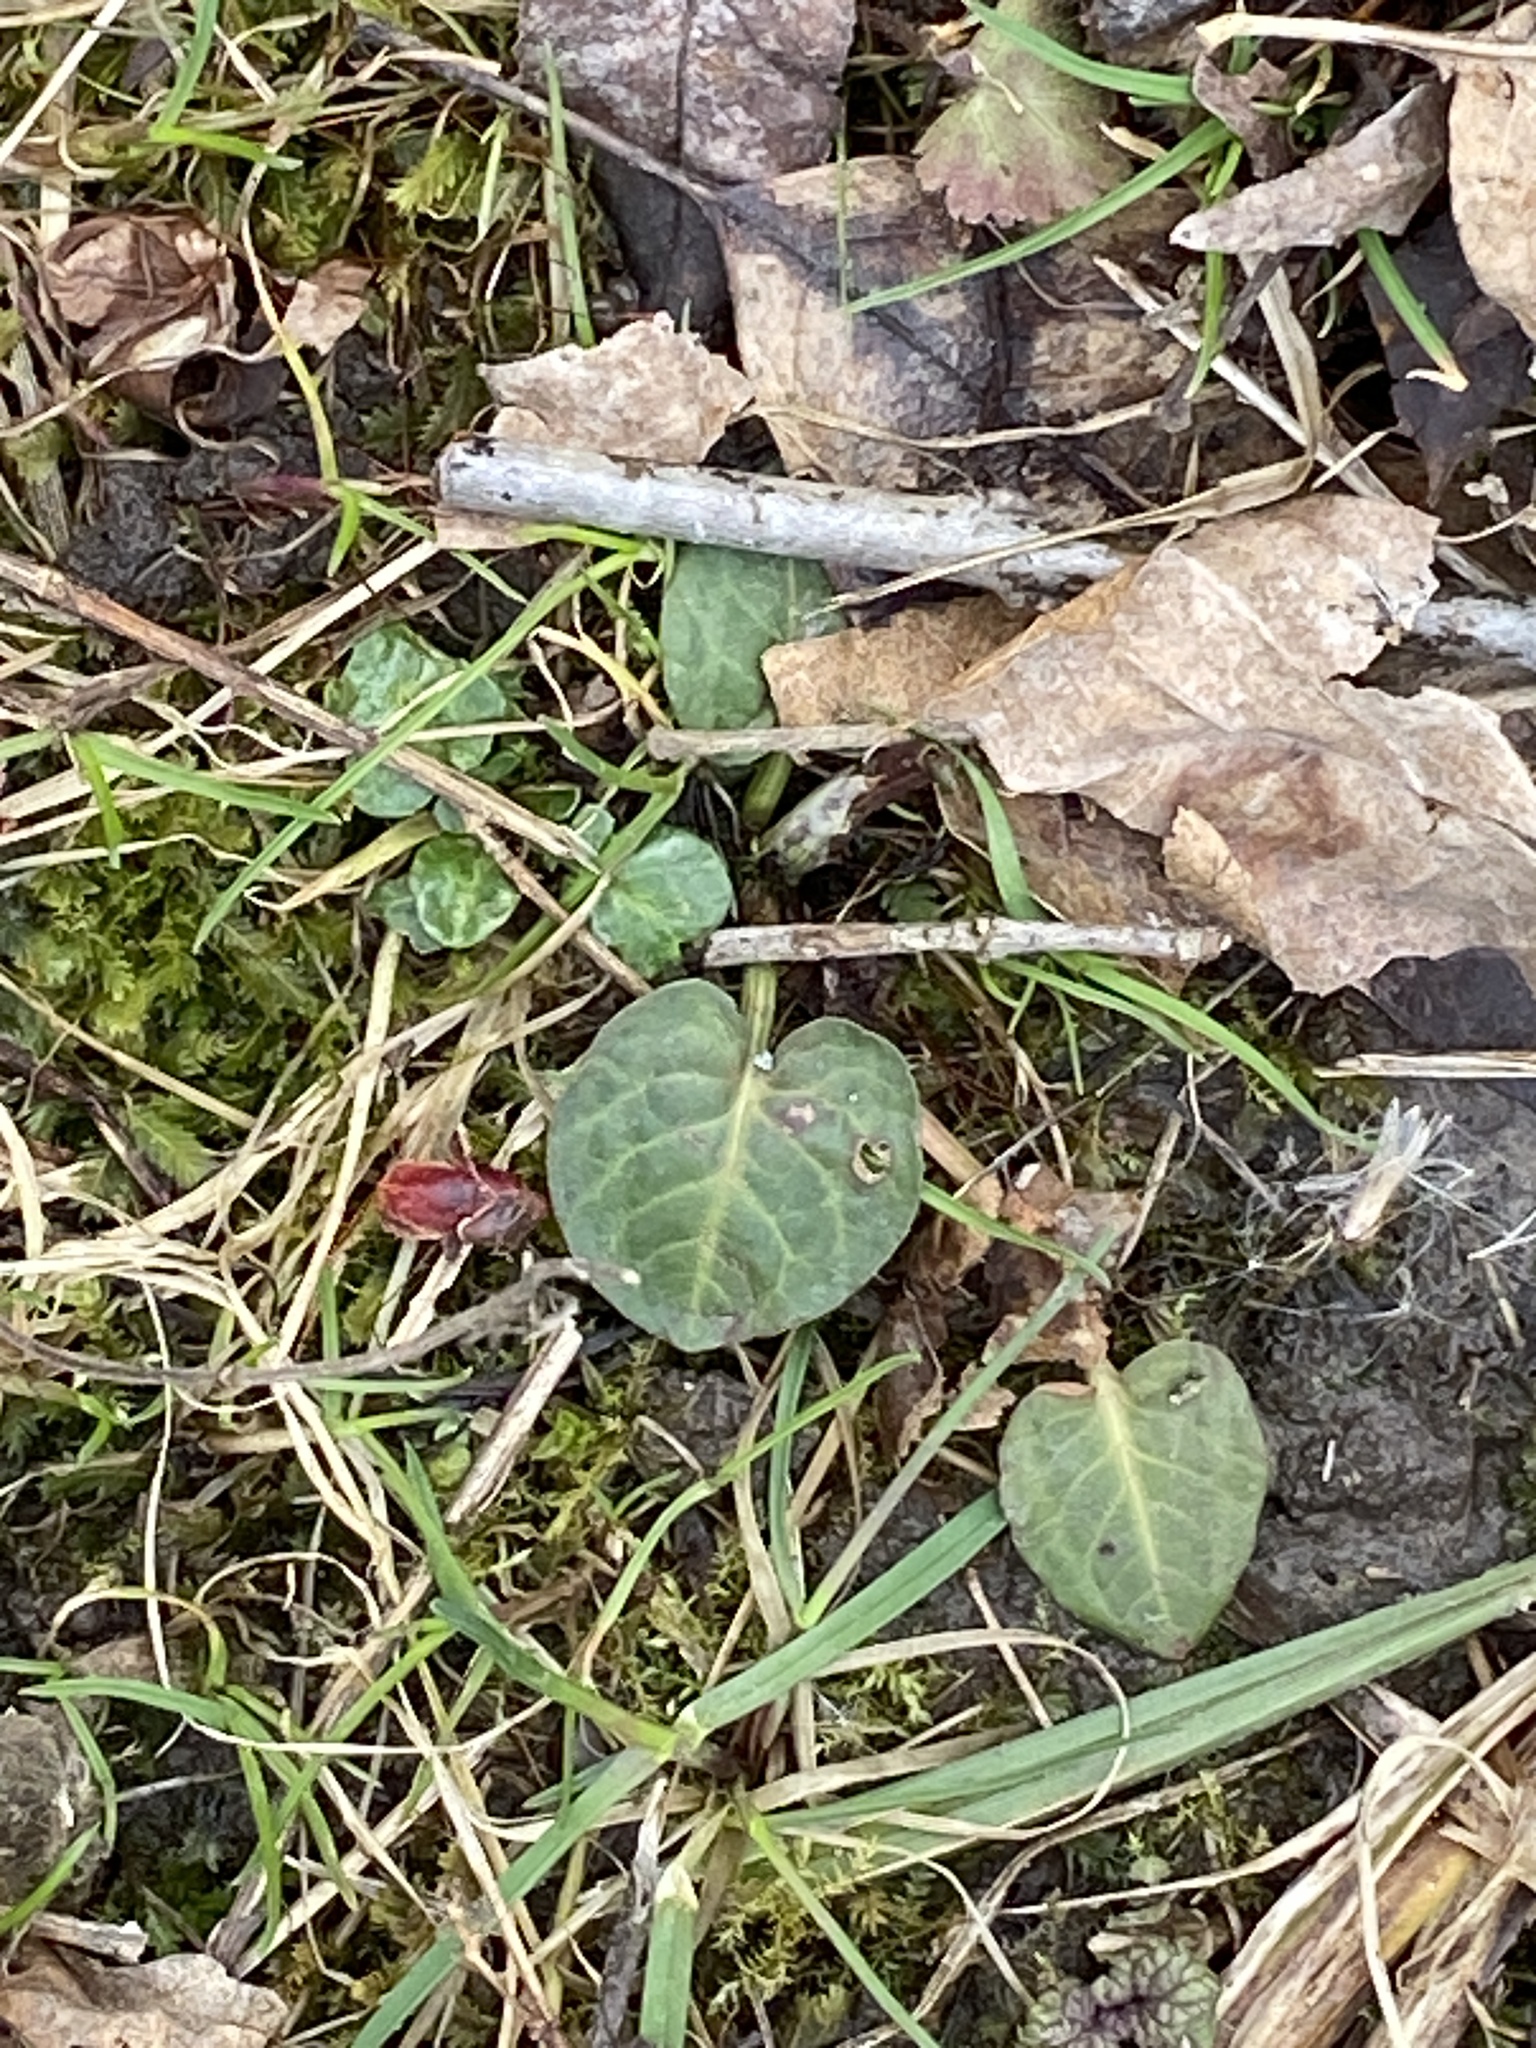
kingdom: Plantae
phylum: Tracheophyta
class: Magnoliopsida
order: Caryophyllales
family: Polygonaceae
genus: Rumex
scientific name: Rumex obtusifolius
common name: Bitter dock
